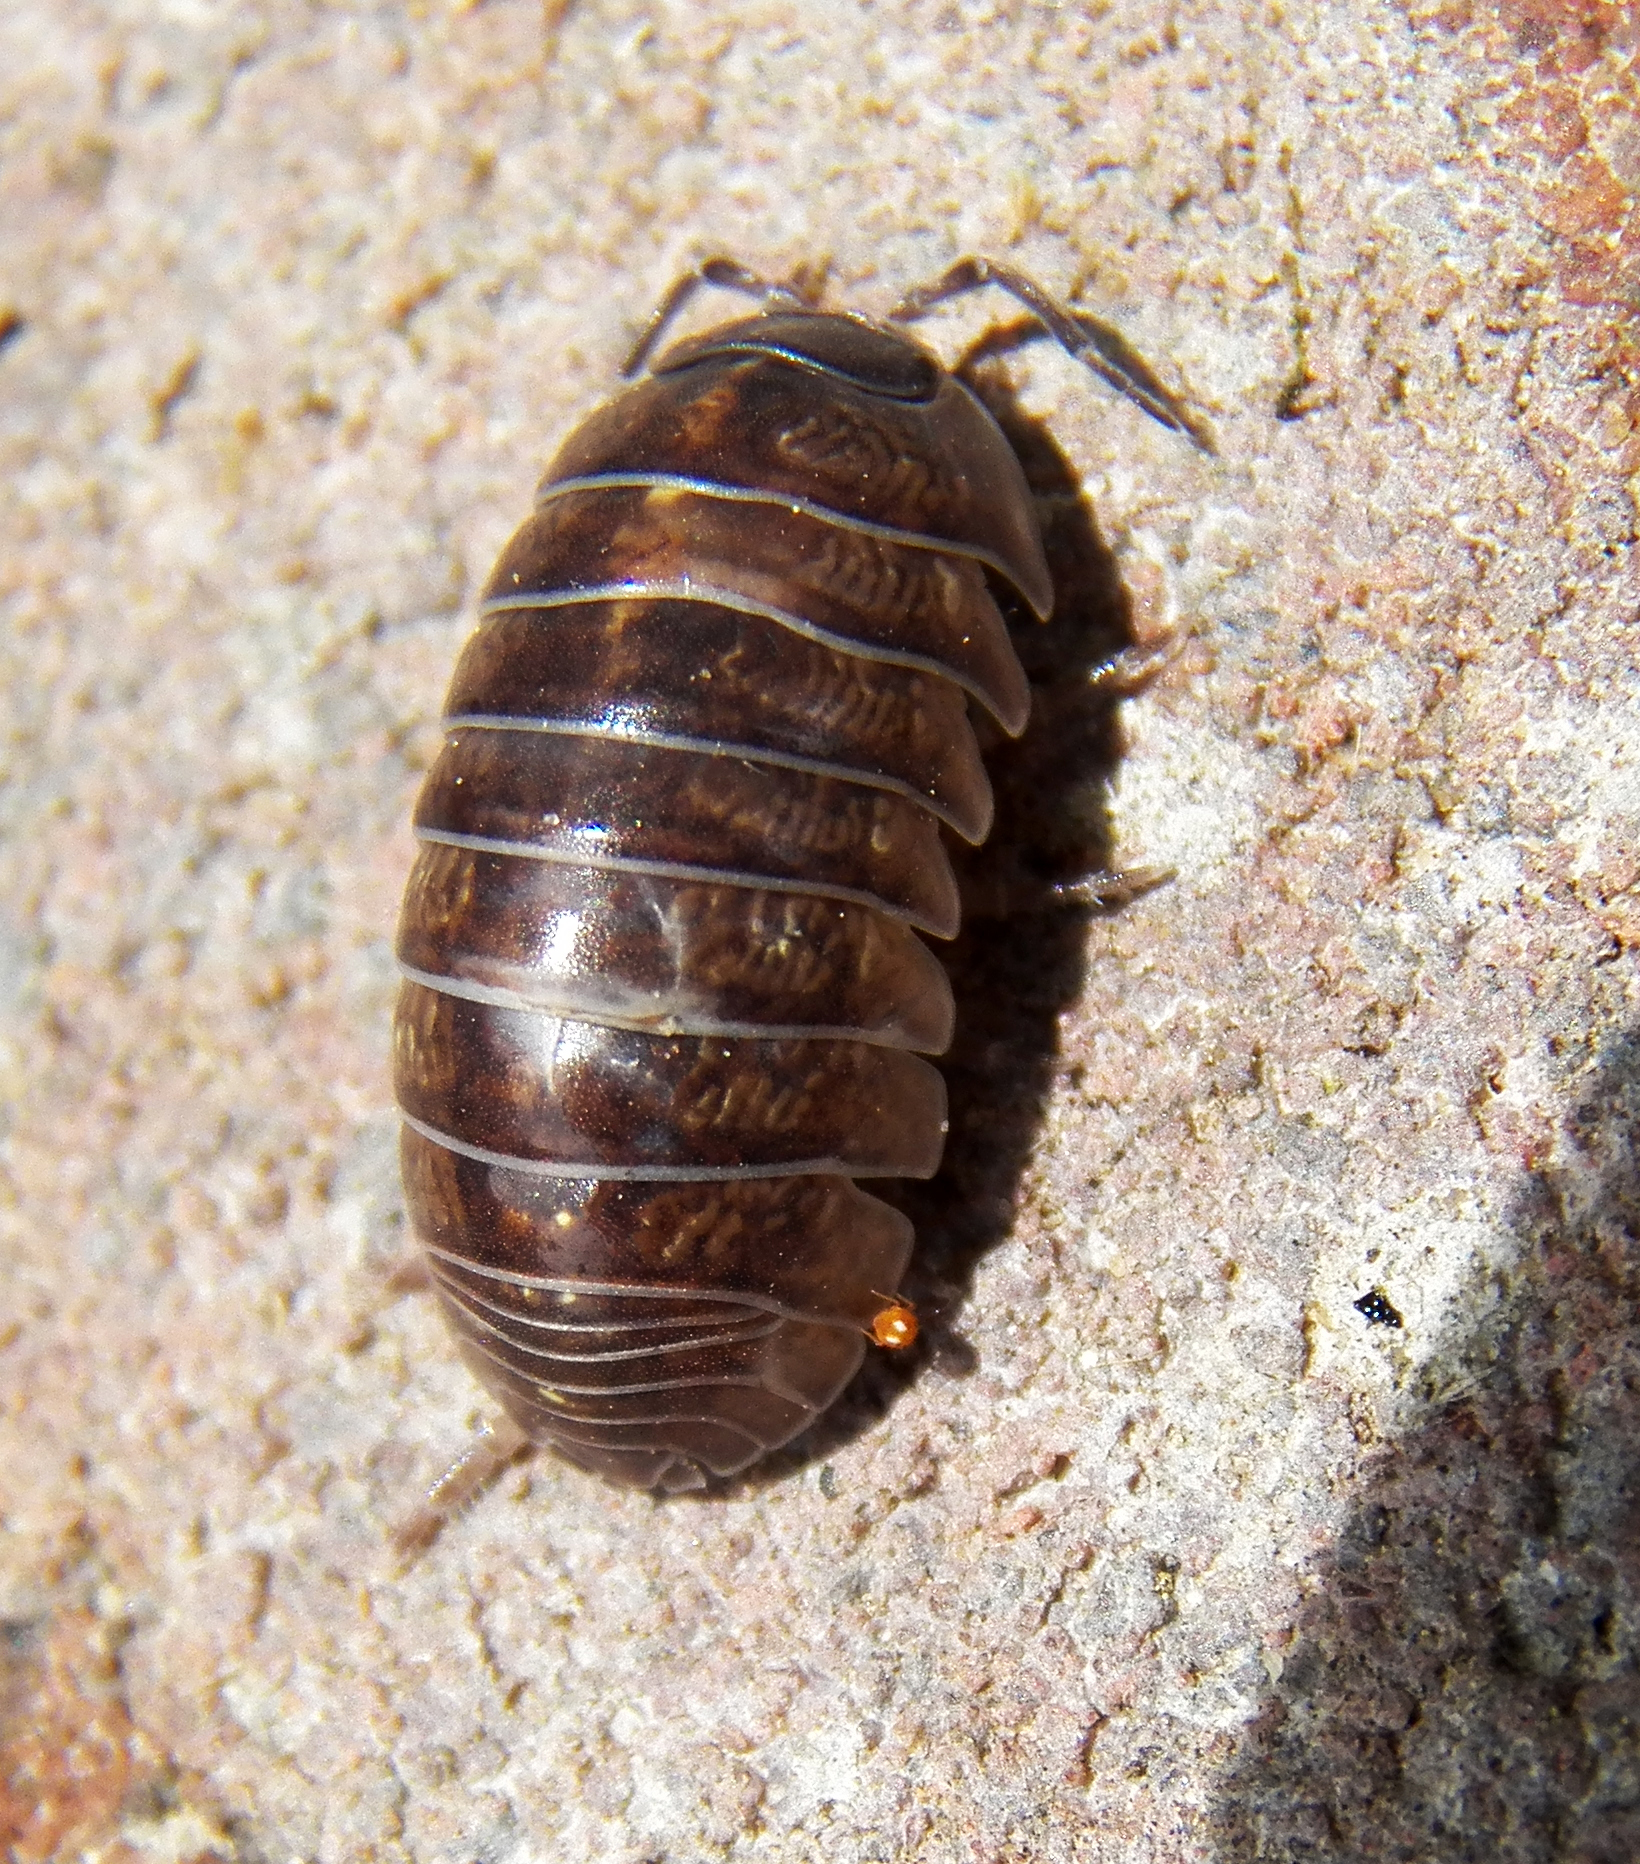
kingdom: Animalia
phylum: Arthropoda
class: Malacostraca
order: Isopoda
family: Armadillidiidae
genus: Armadillidium
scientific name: Armadillidium vulgare
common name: Common pill woodlouse
